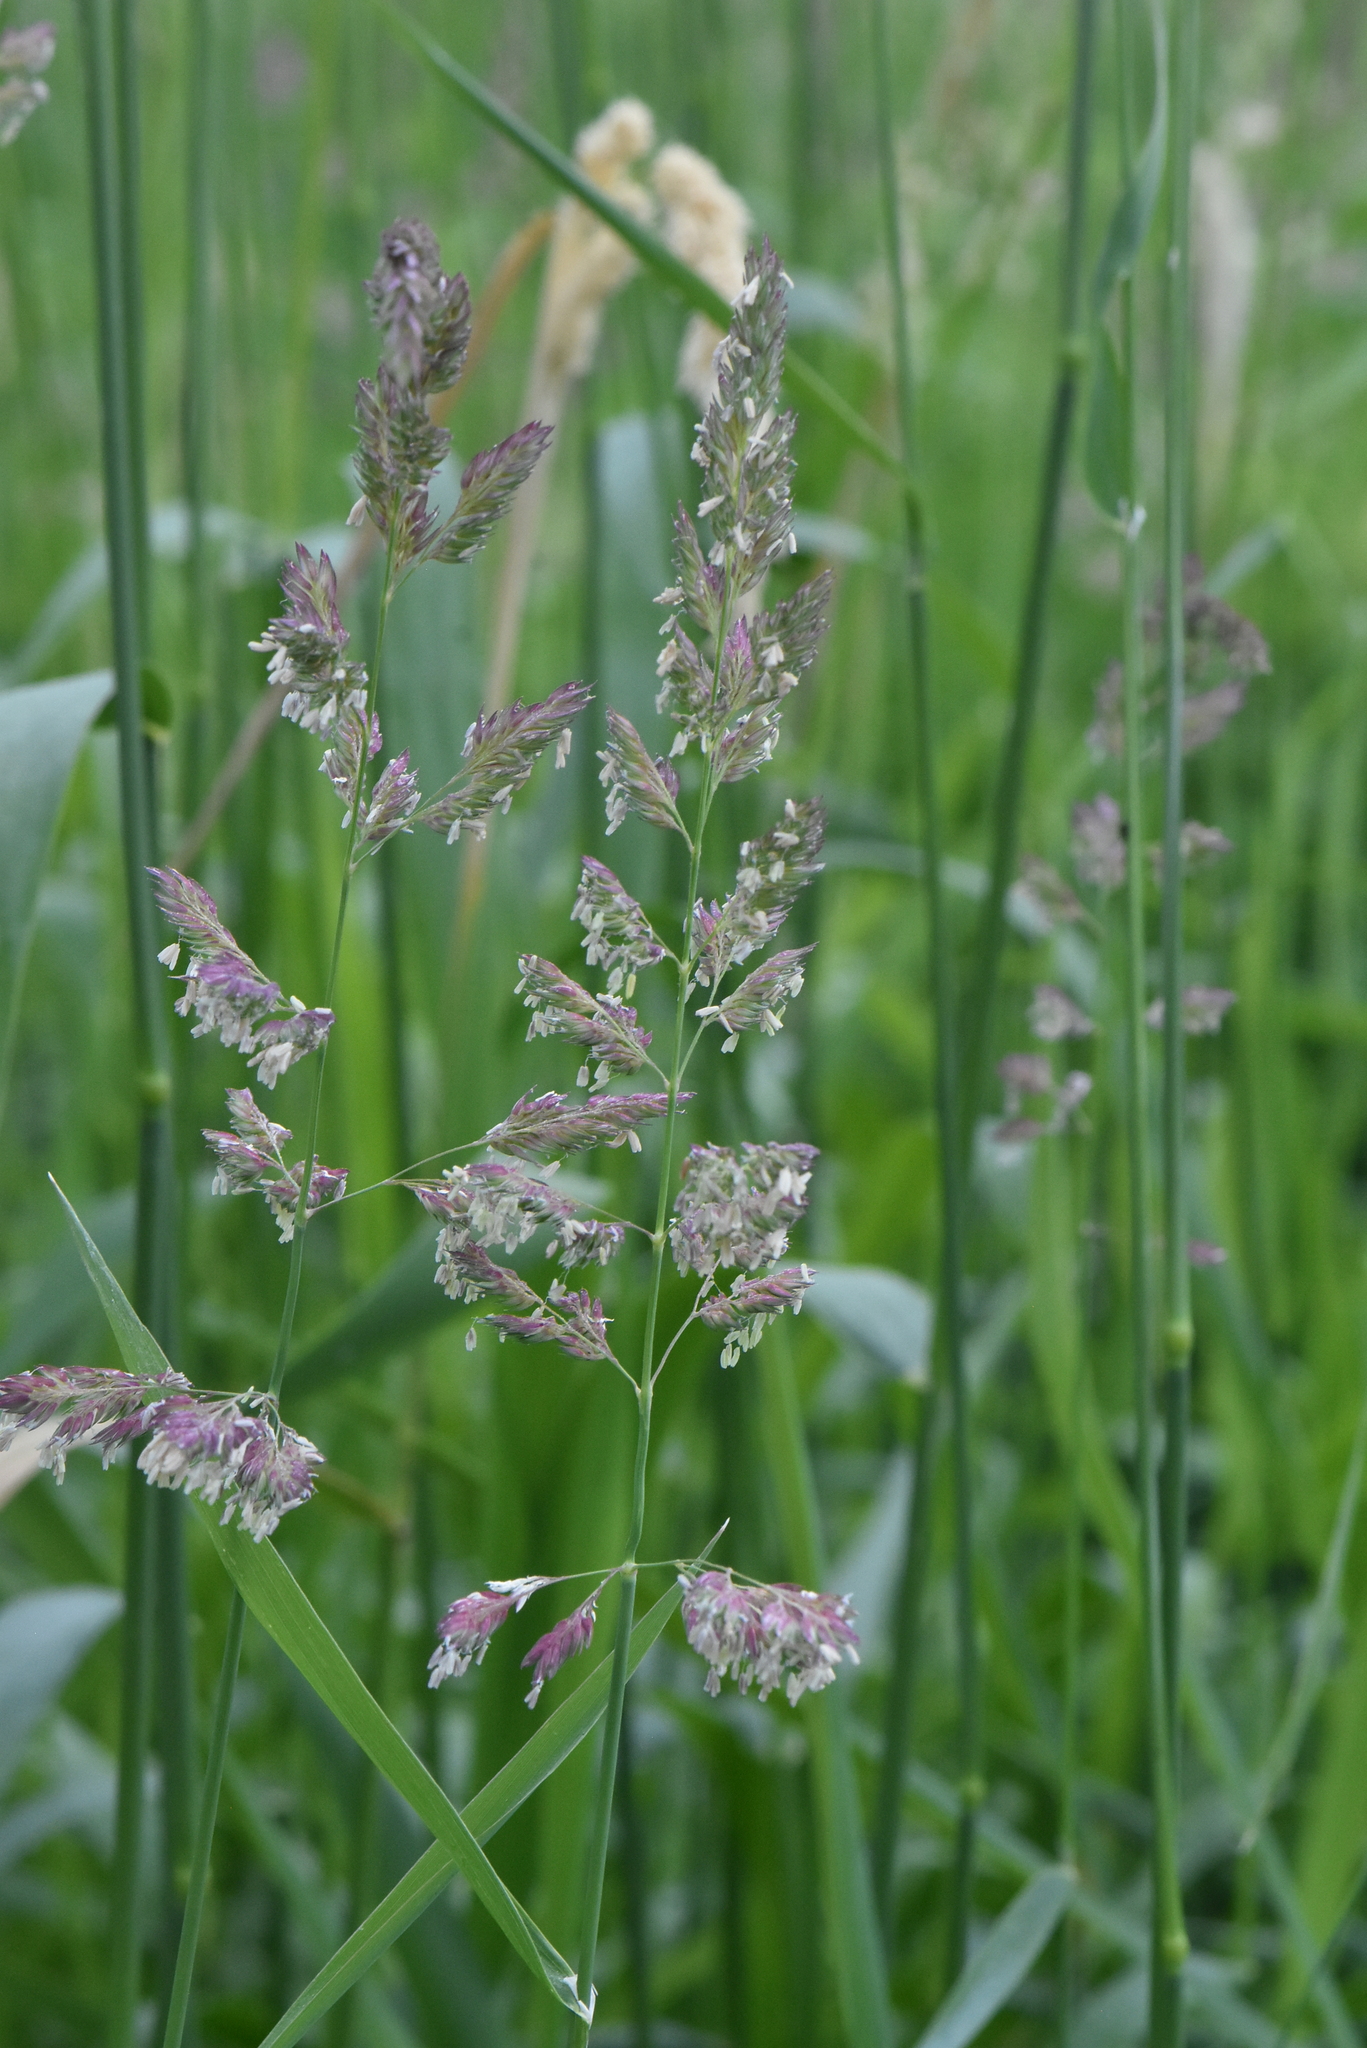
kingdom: Plantae
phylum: Tracheophyta
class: Liliopsida
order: Poales
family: Poaceae
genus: Phalaris
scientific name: Phalaris arundinacea
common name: Reed canary-grass
